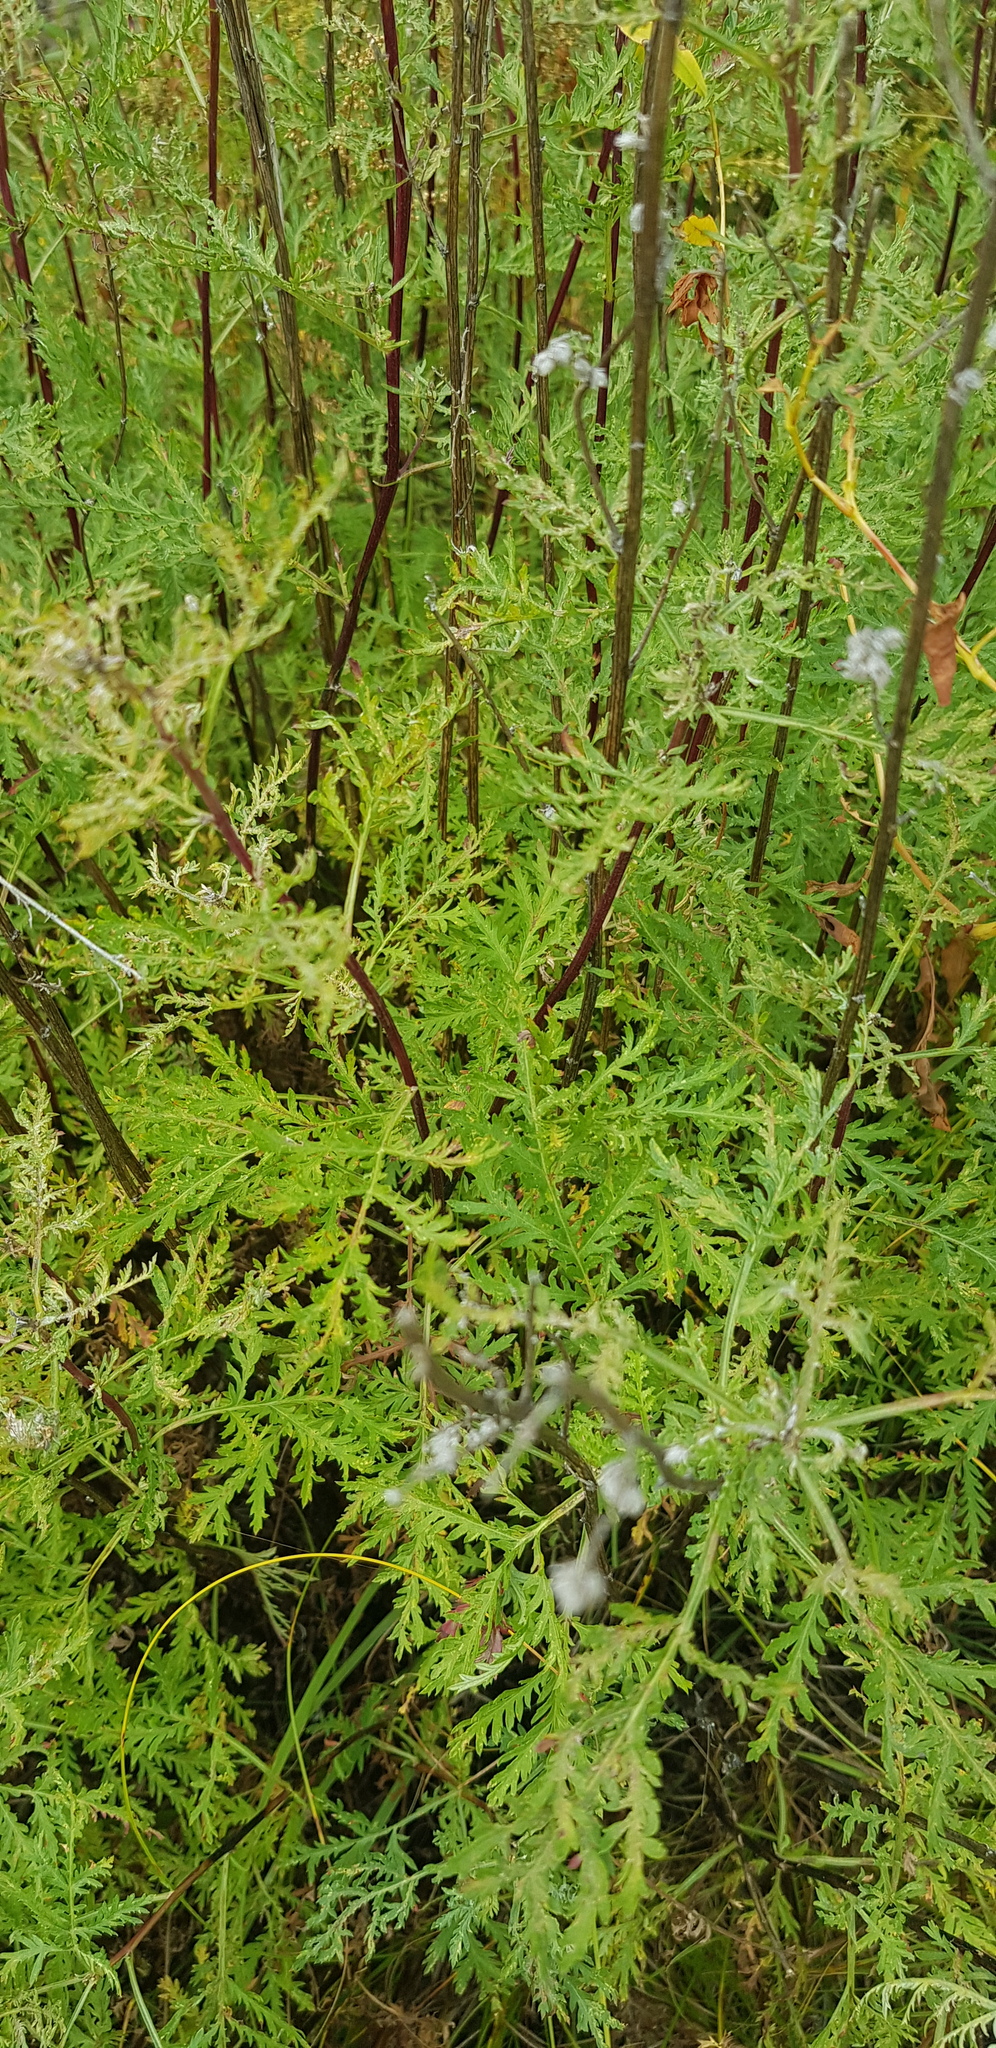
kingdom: Plantae
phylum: Tracheophyta
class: Magnoliopsida
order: Asterales
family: Asteraceae
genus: Artemisia
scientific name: Artemisia gmelinii
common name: Gmelin's wormwood
